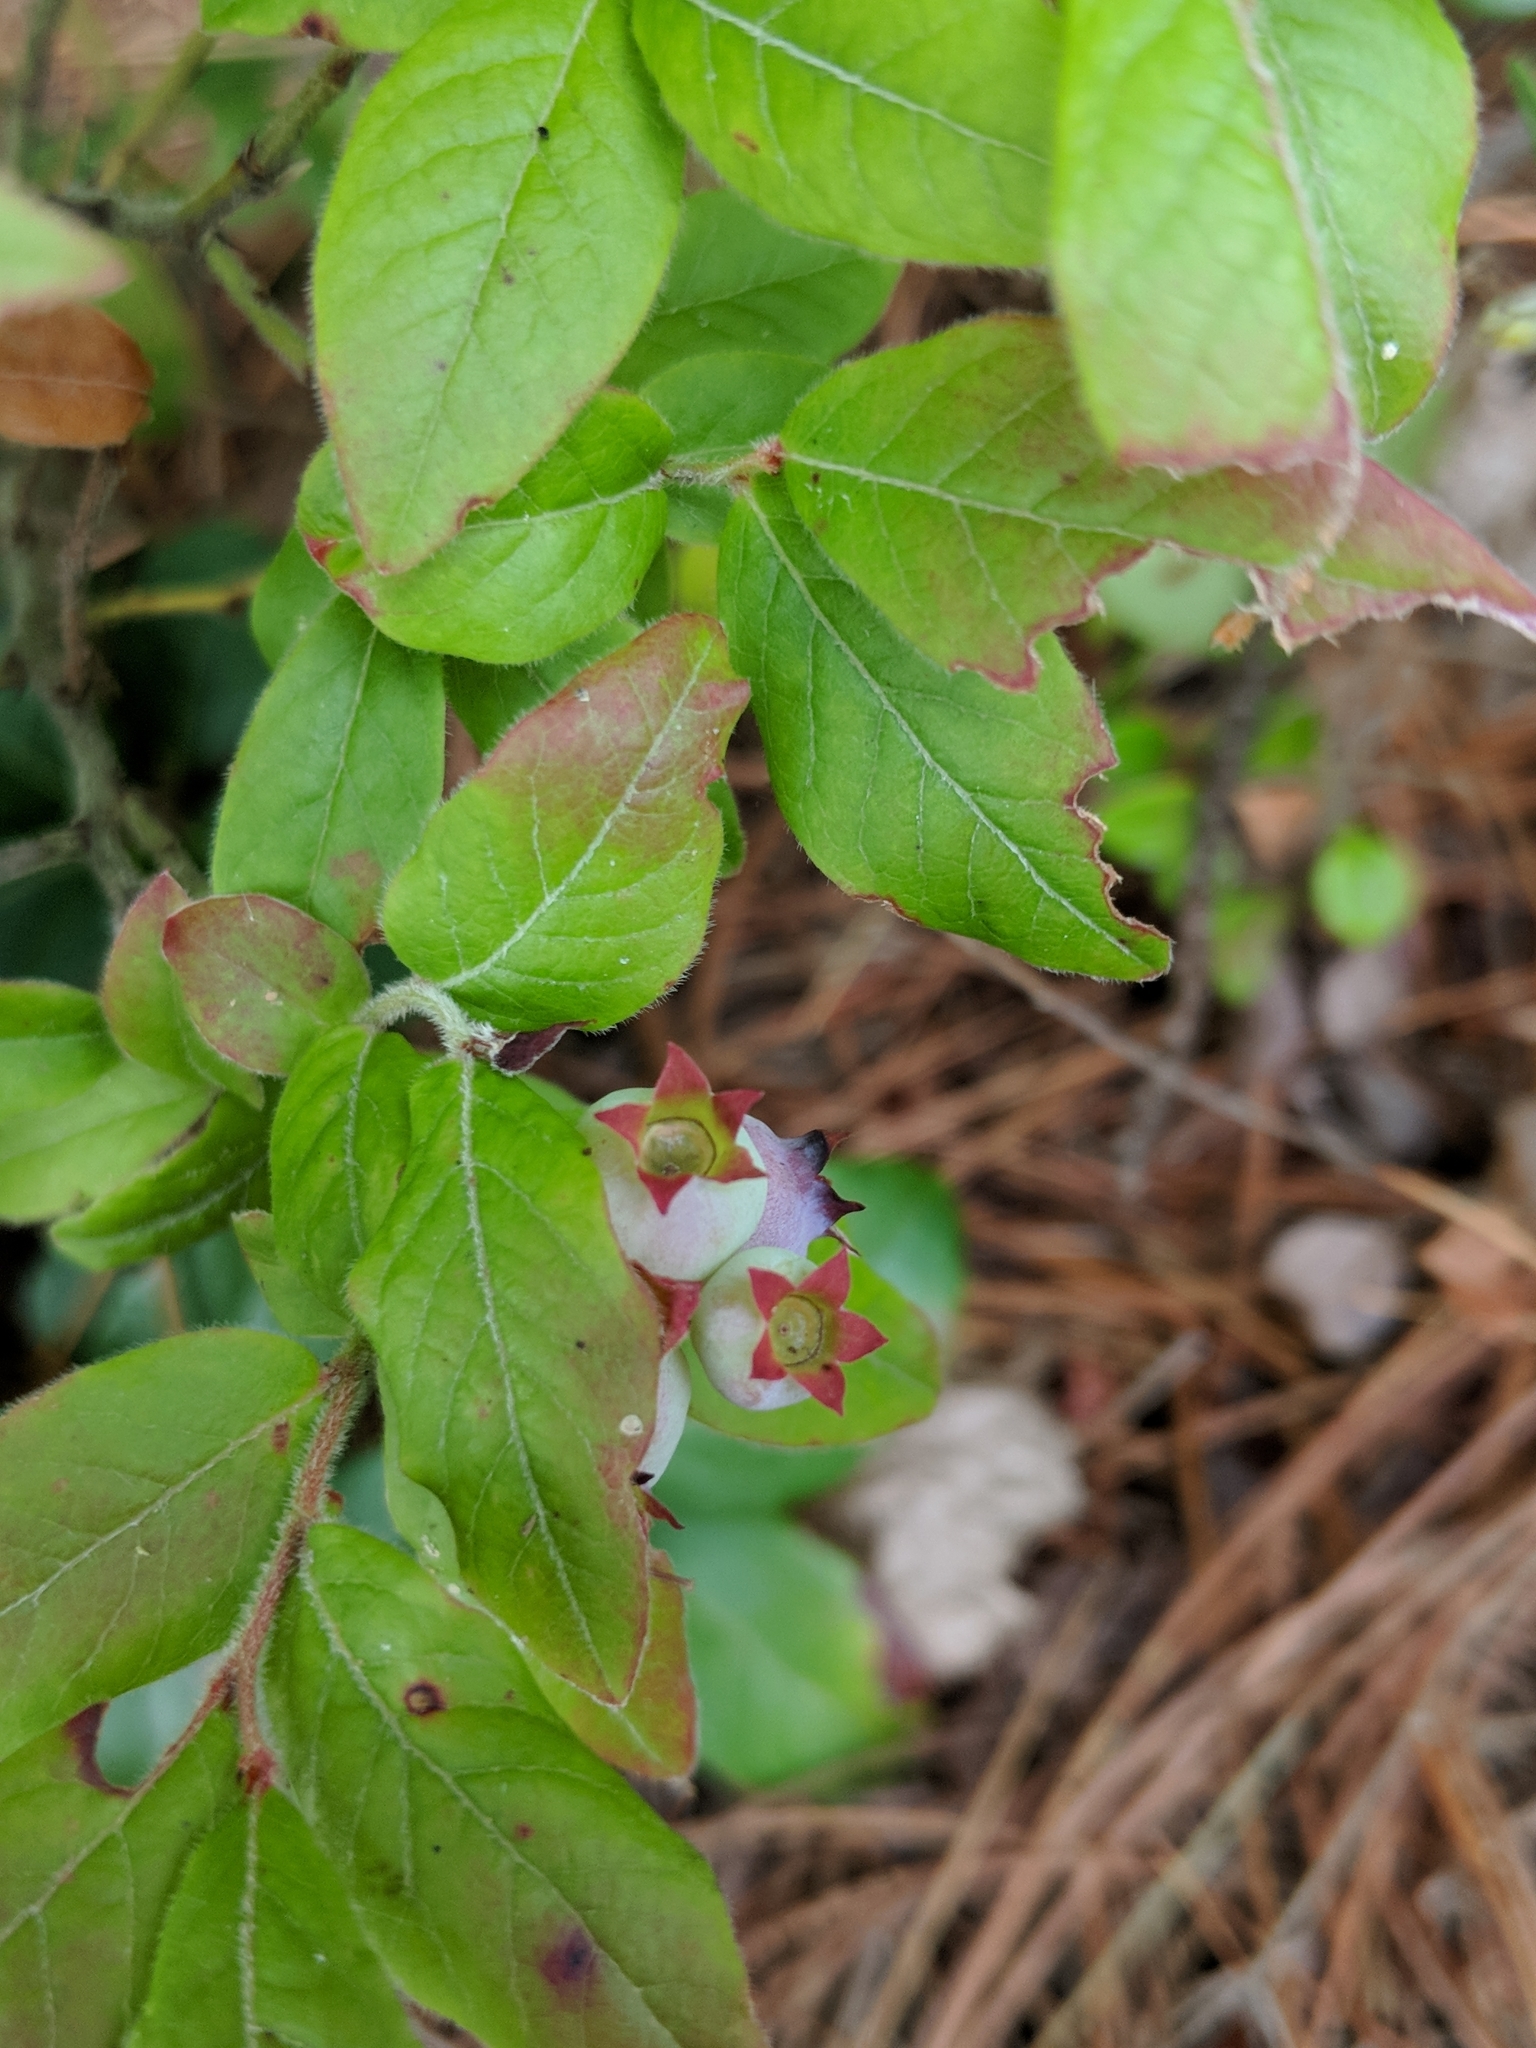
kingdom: Plantae
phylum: Tracheophyta
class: Magnoliopsida
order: Ericales
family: Ericaceae
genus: Vaccinium
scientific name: Vaccinium myrtilloides
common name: Canada blueberry
